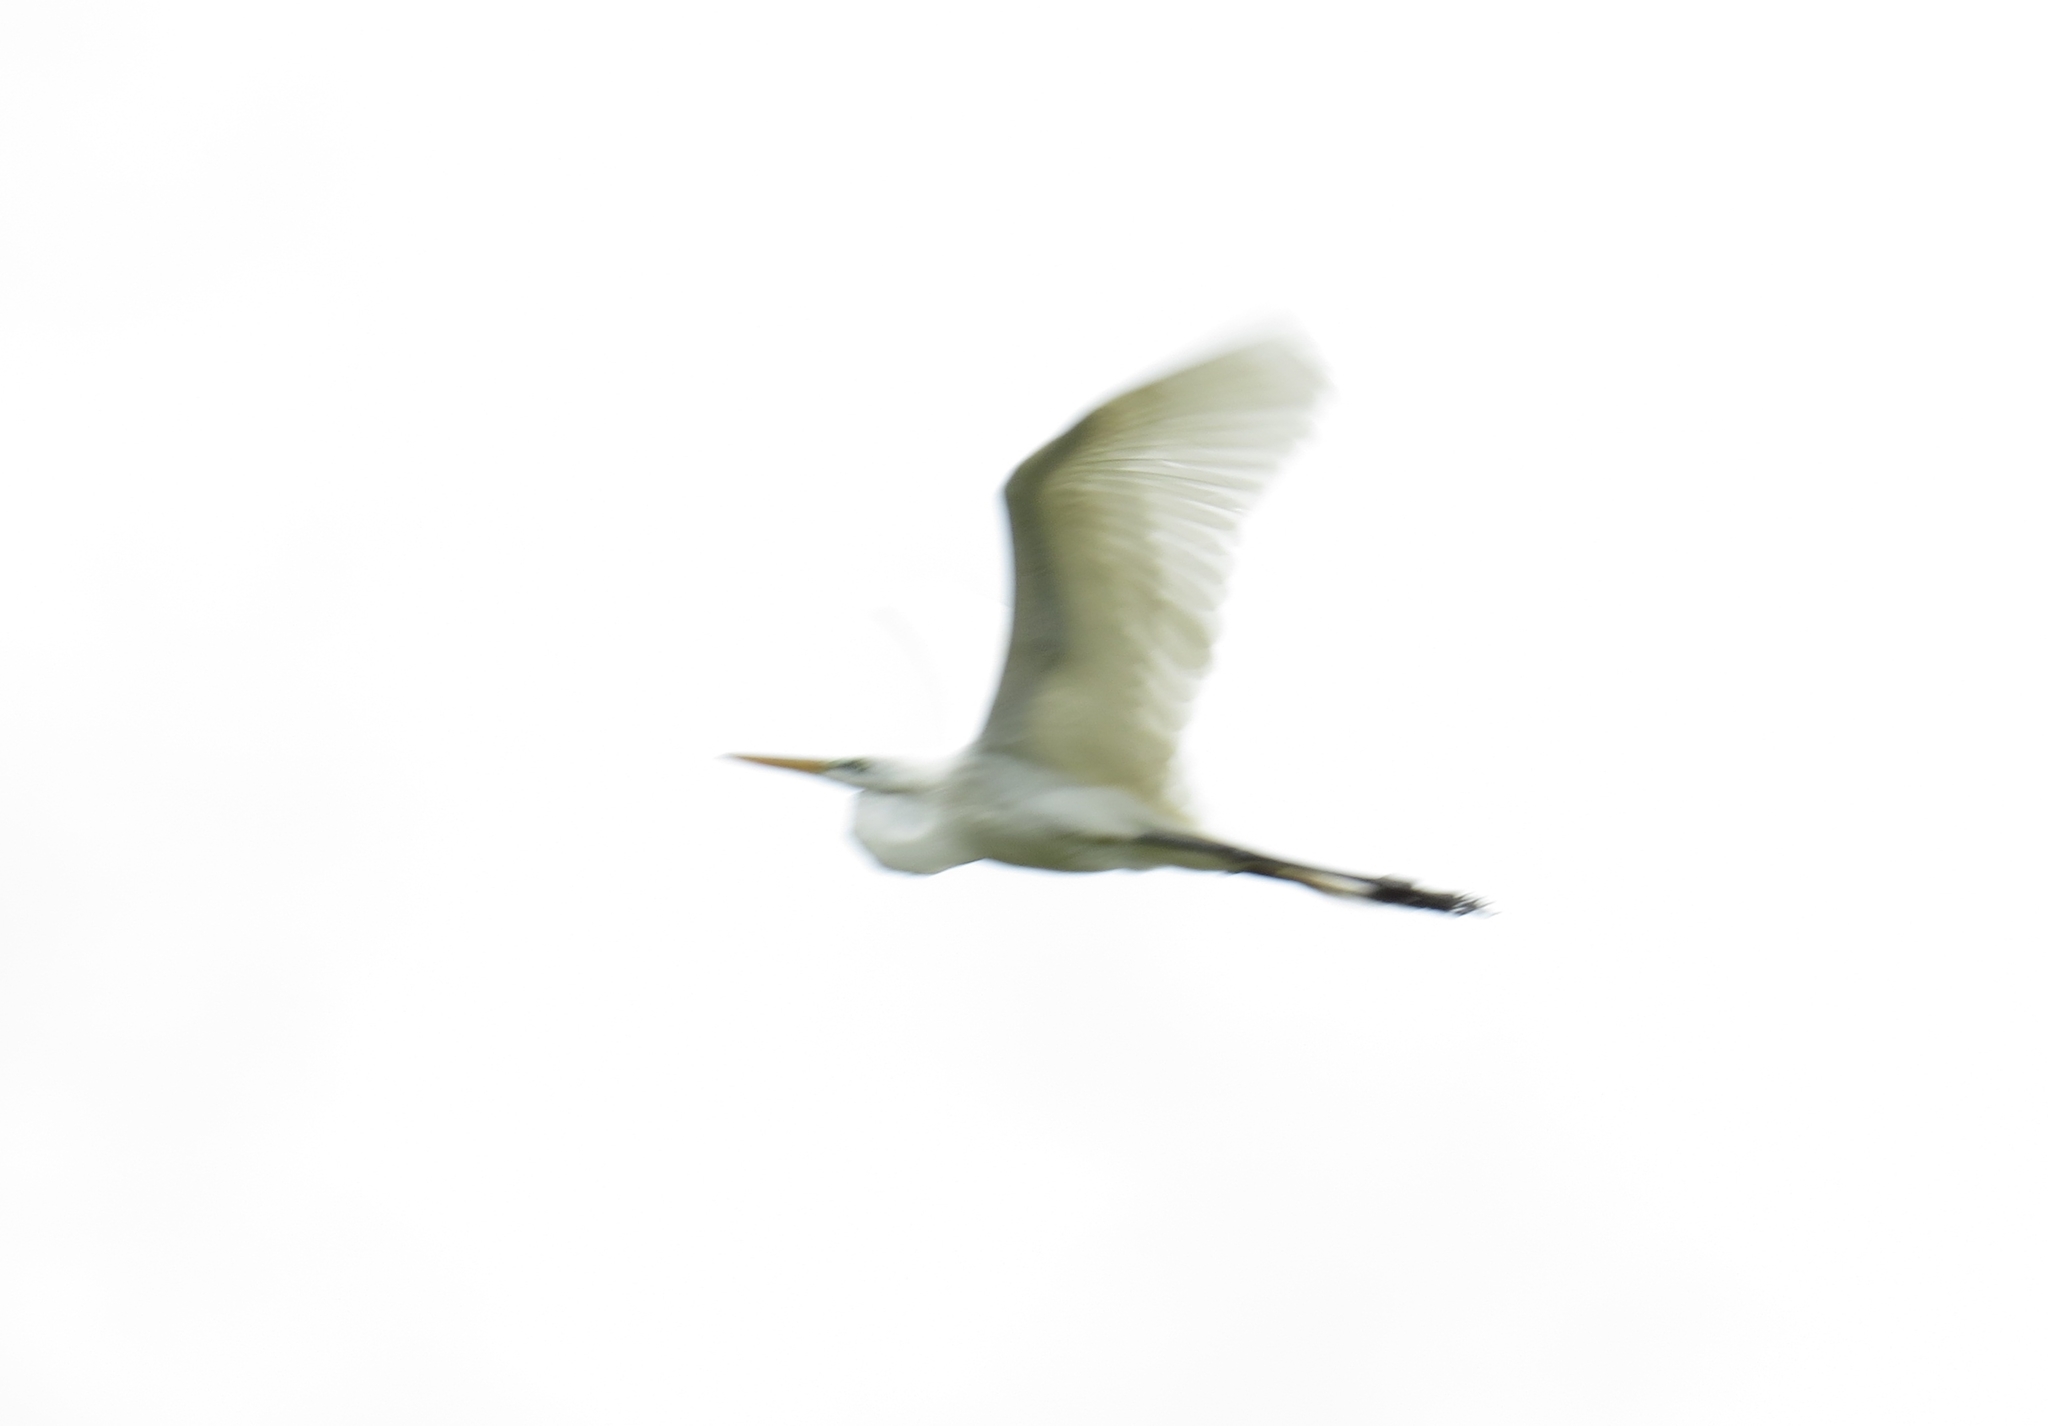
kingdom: Animalia
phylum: Chordata
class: Aves
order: Pelecaniformes
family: Ardeidae
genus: Ardea
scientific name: Ardea alba
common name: Great egret
